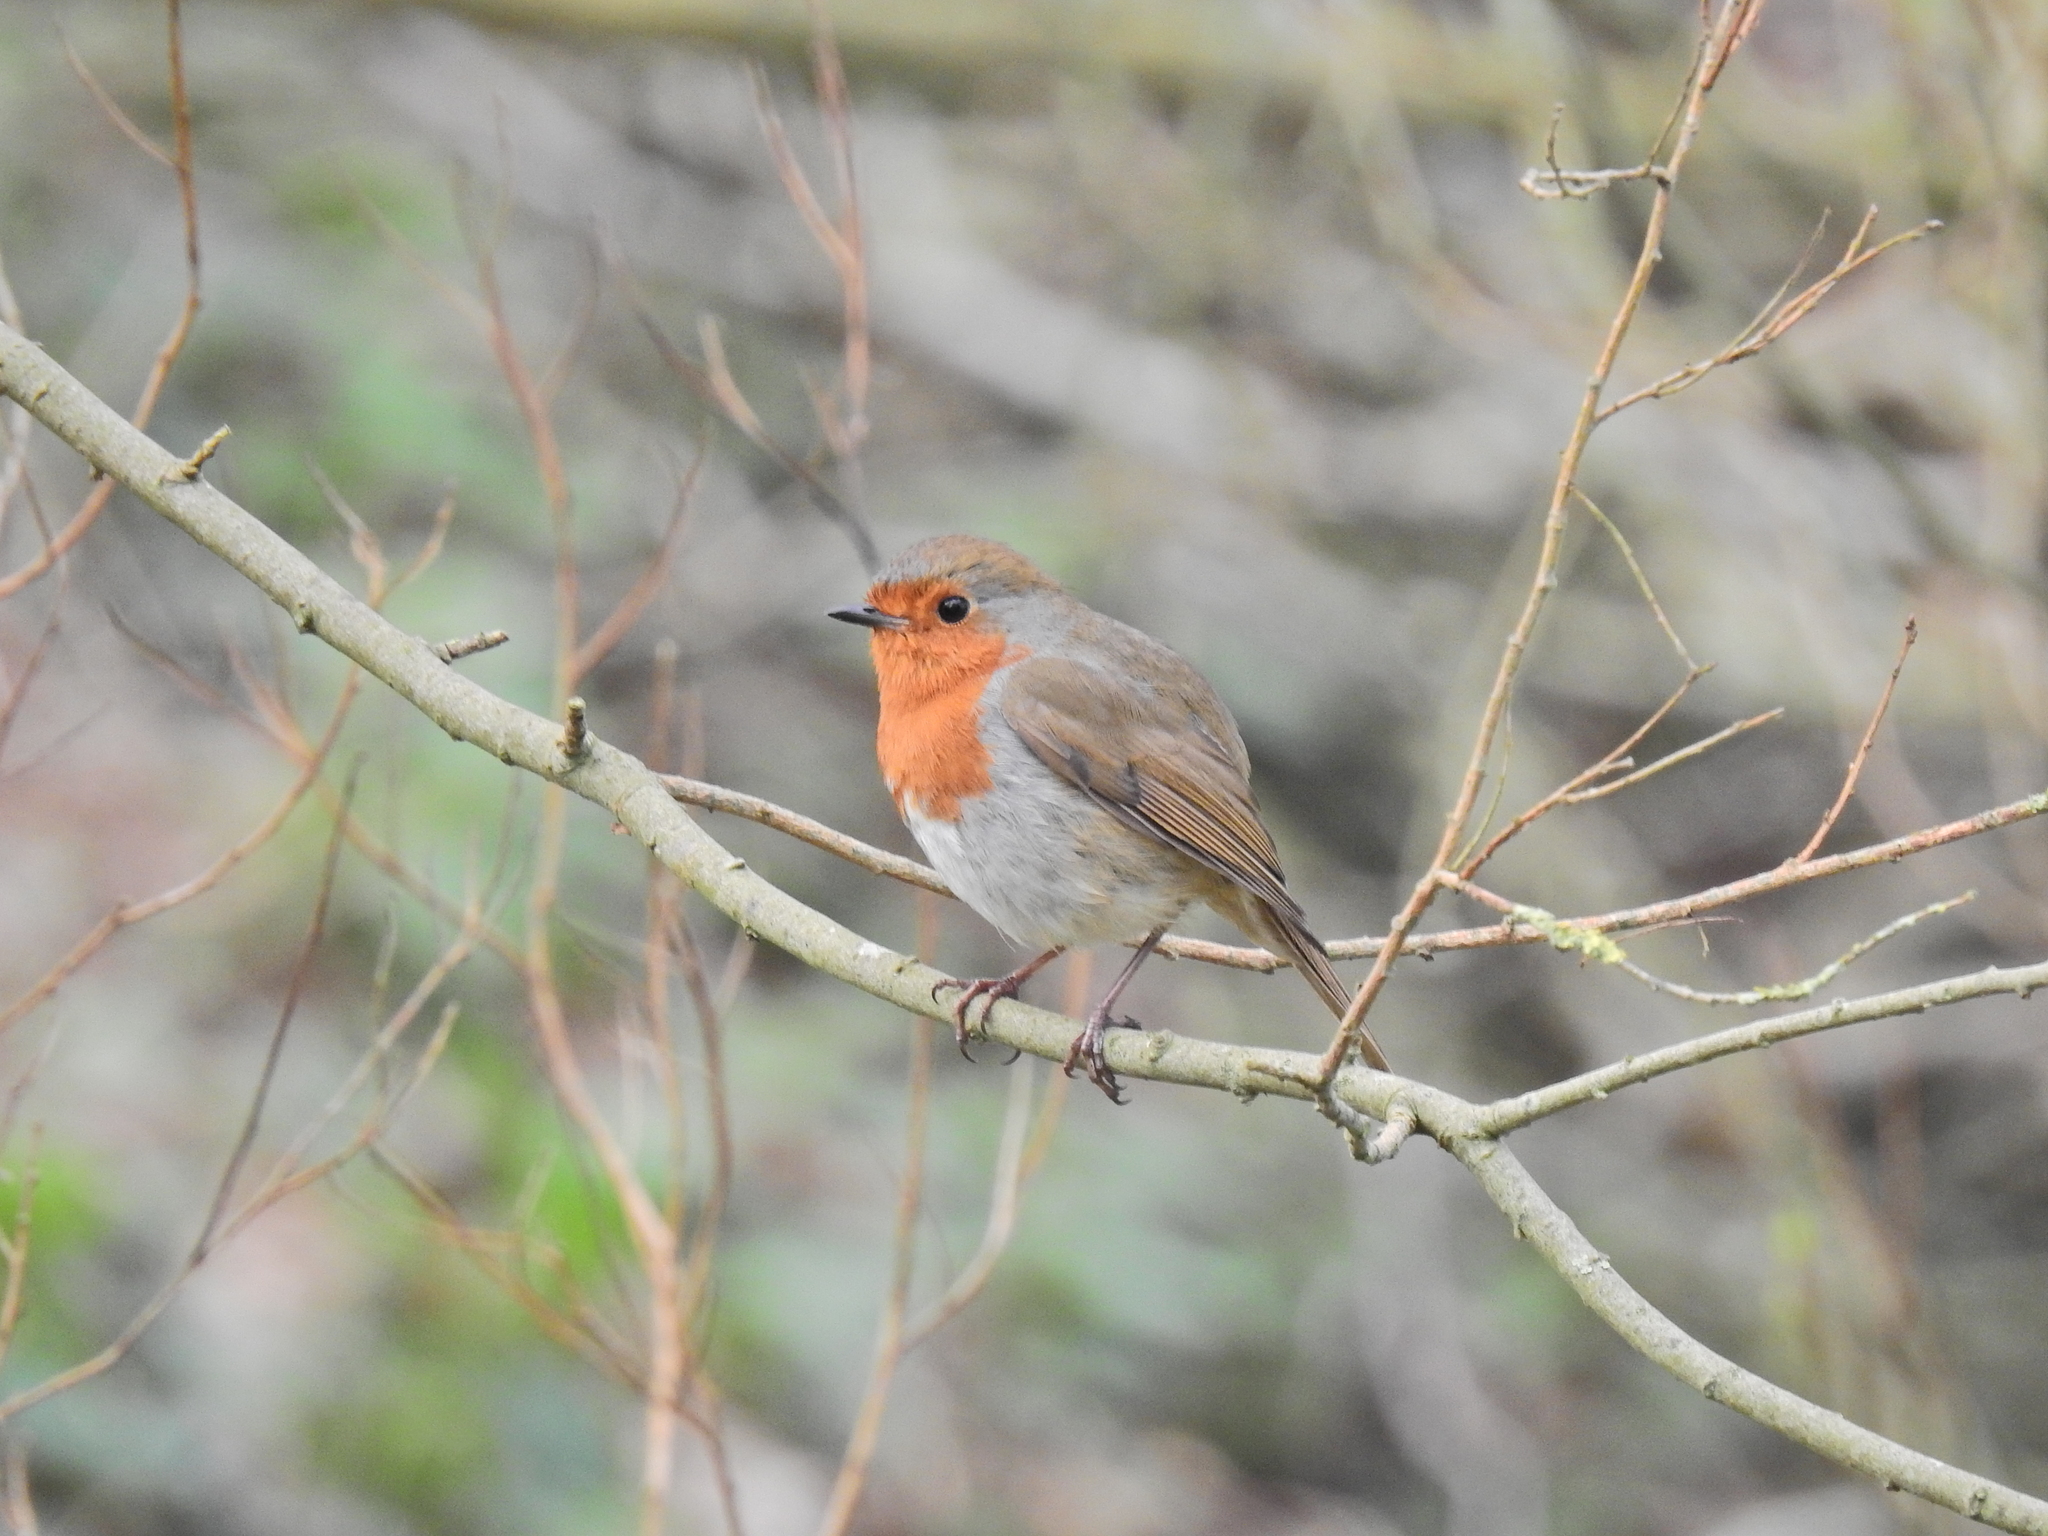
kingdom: Animalia
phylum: Chordata
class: Aves
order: Passeriformes
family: Muscicapidae
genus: Erithacus
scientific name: Erithacus rubecula
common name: European robin
